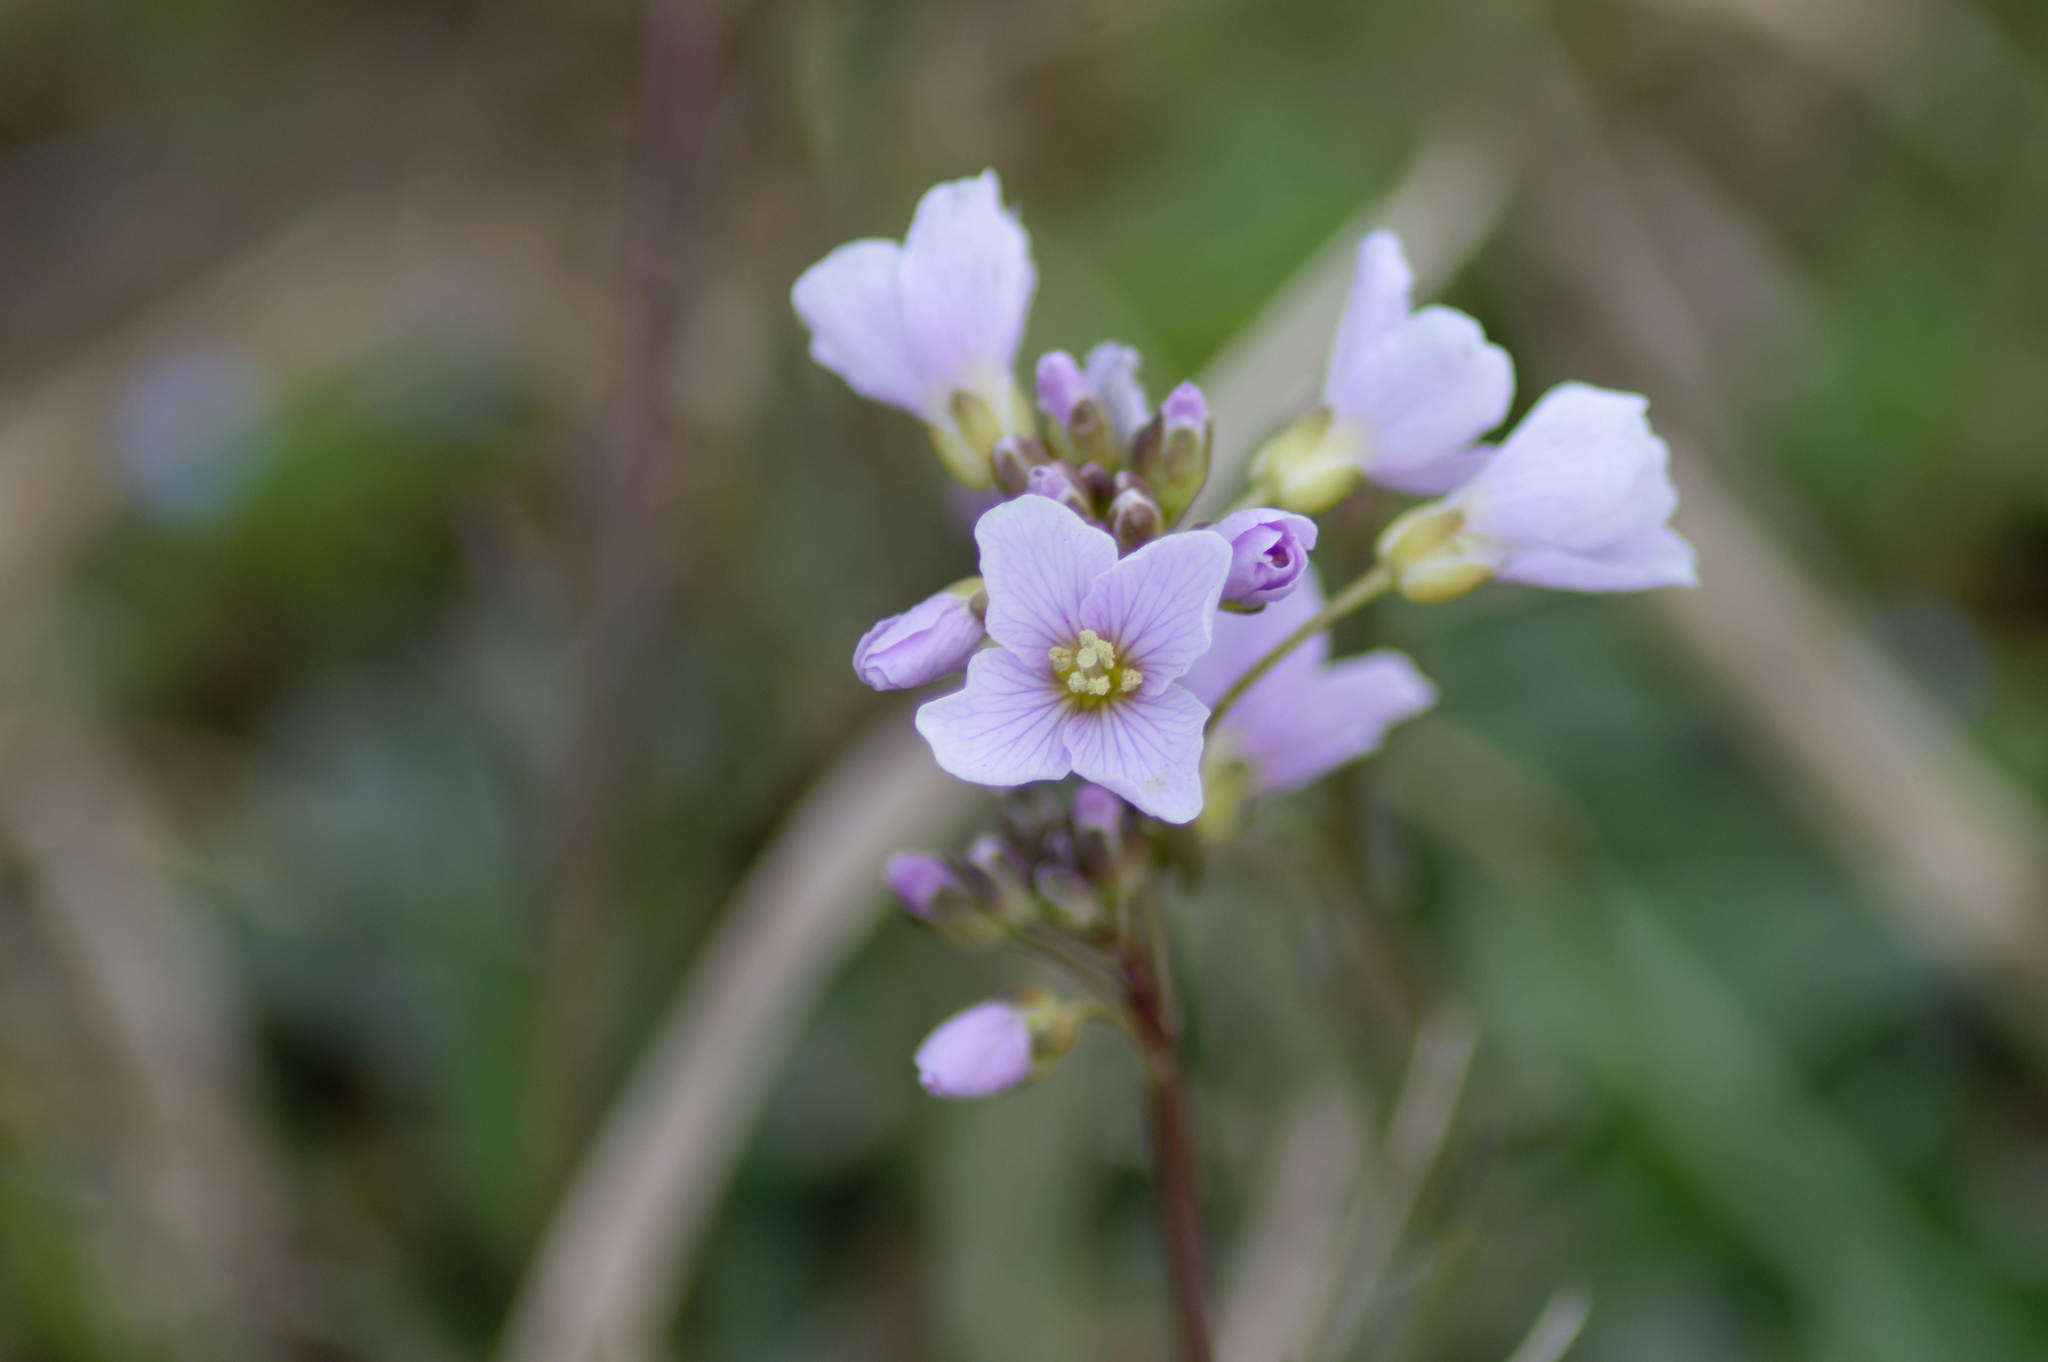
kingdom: Plantae
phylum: Tracheophyta
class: Magnoliopsida
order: Brassicales
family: Brassicaceae
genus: Cardamine
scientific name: Cardamine pratensis
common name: Cuckoo flower
